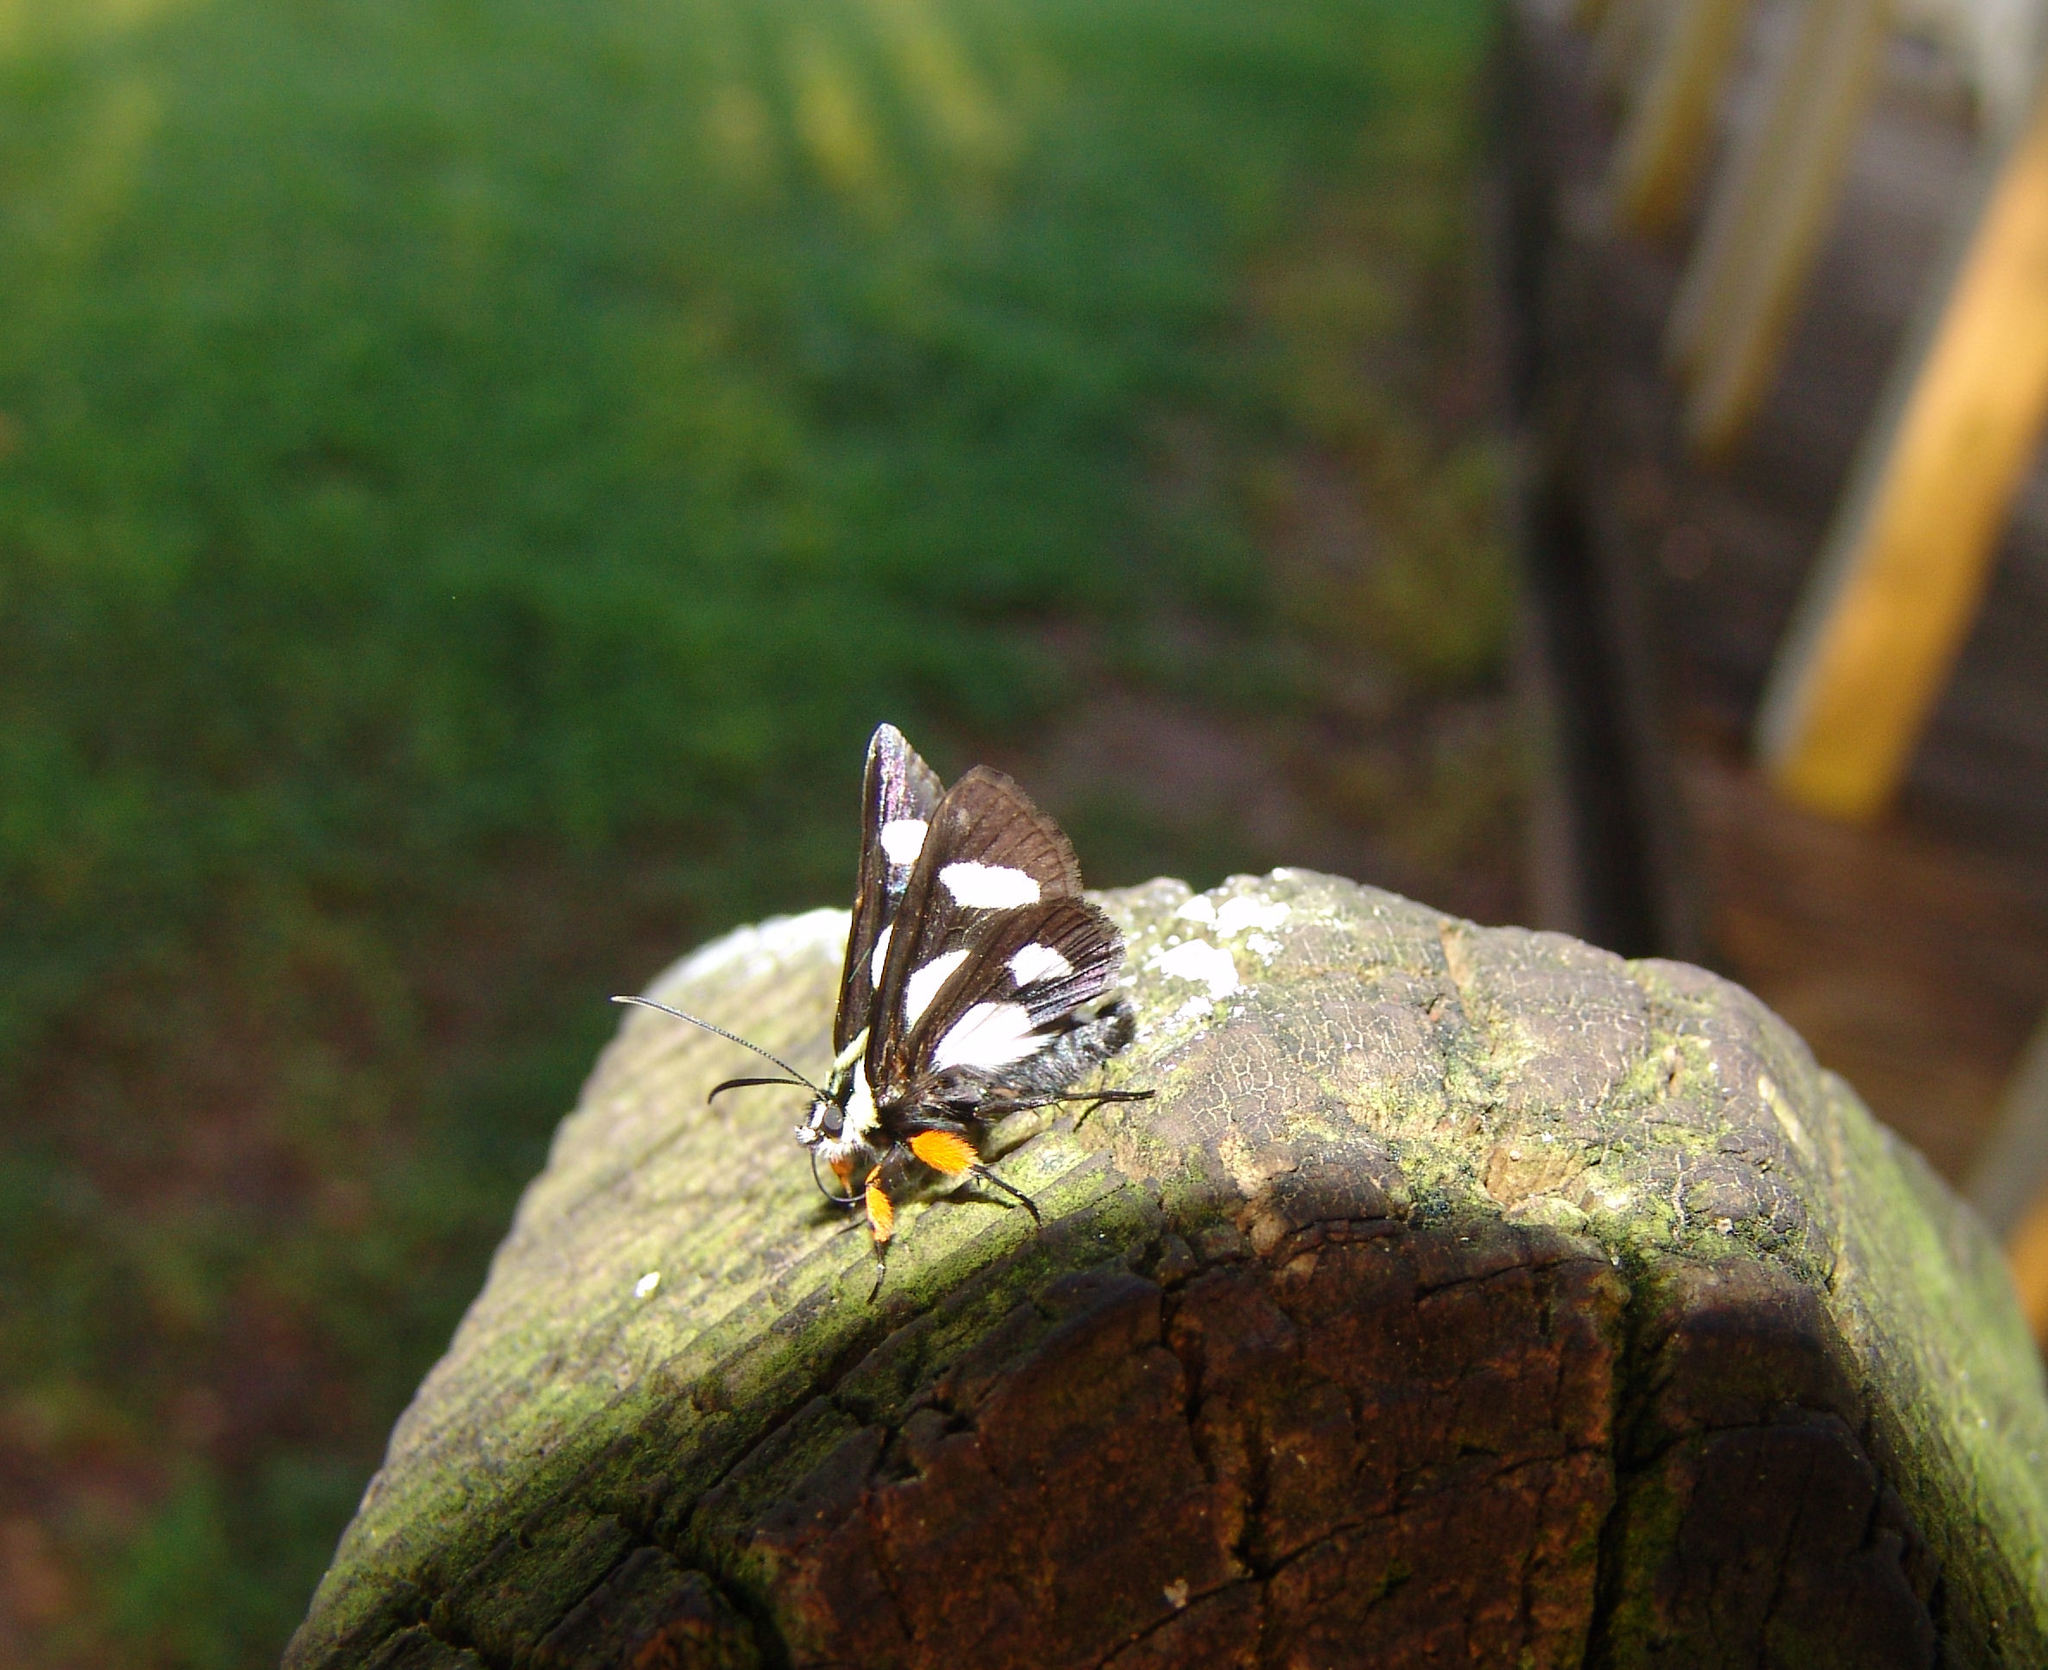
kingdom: Animalia
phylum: Arthropoda
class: Insecta
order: Lepidoptera
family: Noctuidae
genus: Alypia
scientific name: Alypia octomaculata
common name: Eight-spotted forester
